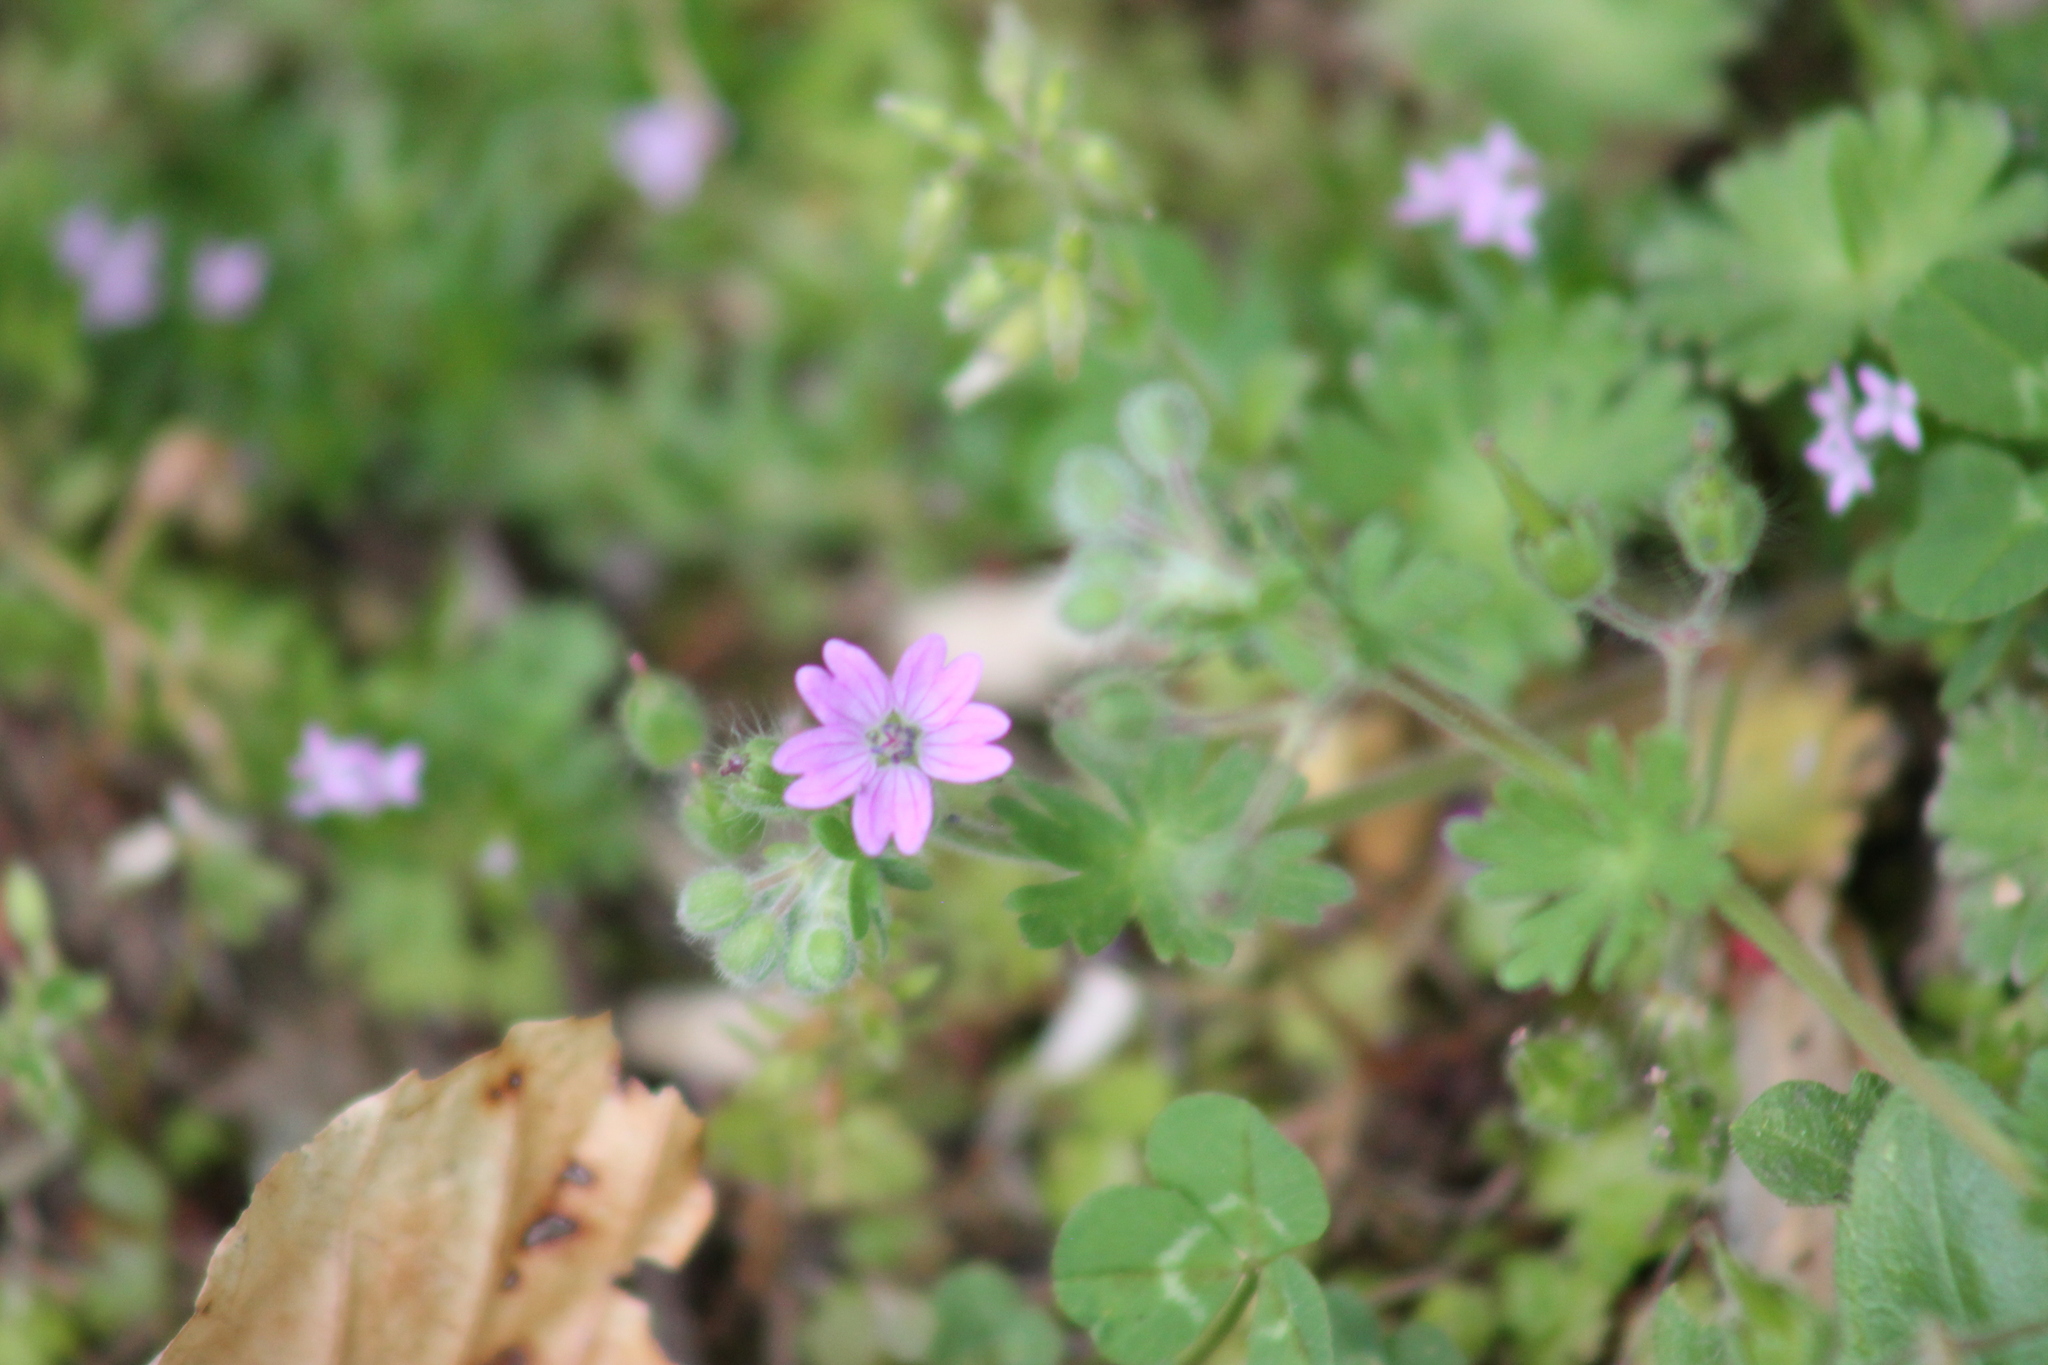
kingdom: Plantae
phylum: Tracheophyta
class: Magnoliopsida
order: Geraniales
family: Geraniaceae
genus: Geranium
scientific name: Geranium molle
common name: Dove's-foot crane's-bill
